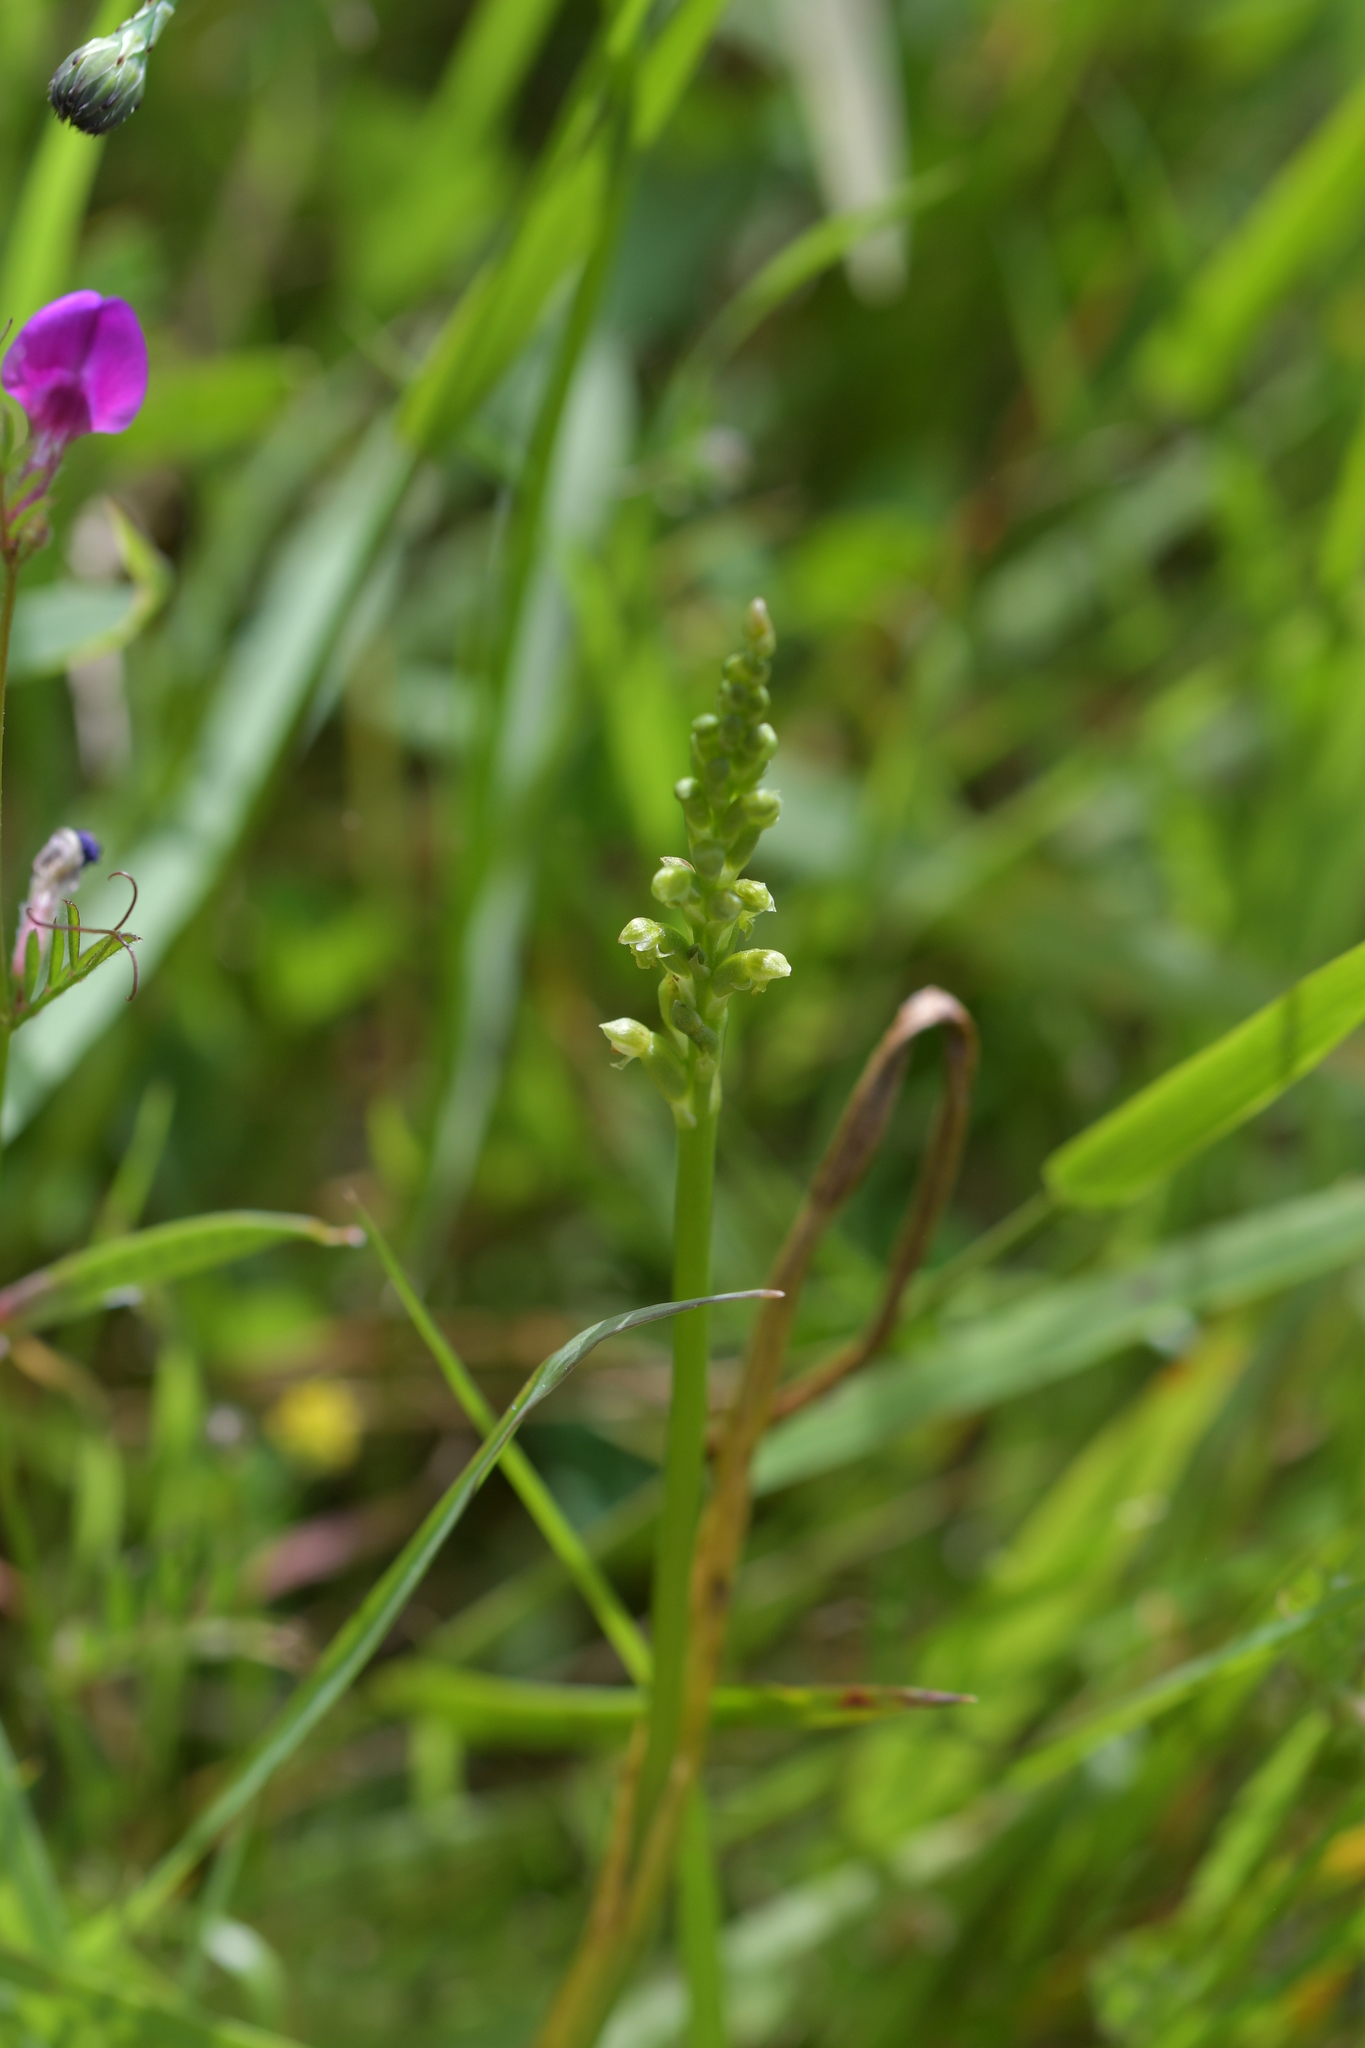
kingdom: Plantae
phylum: Tracheophyta
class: Liliopsida
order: Asparagales
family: Orchidaceae
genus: Microtis
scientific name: Microtis unifolia
